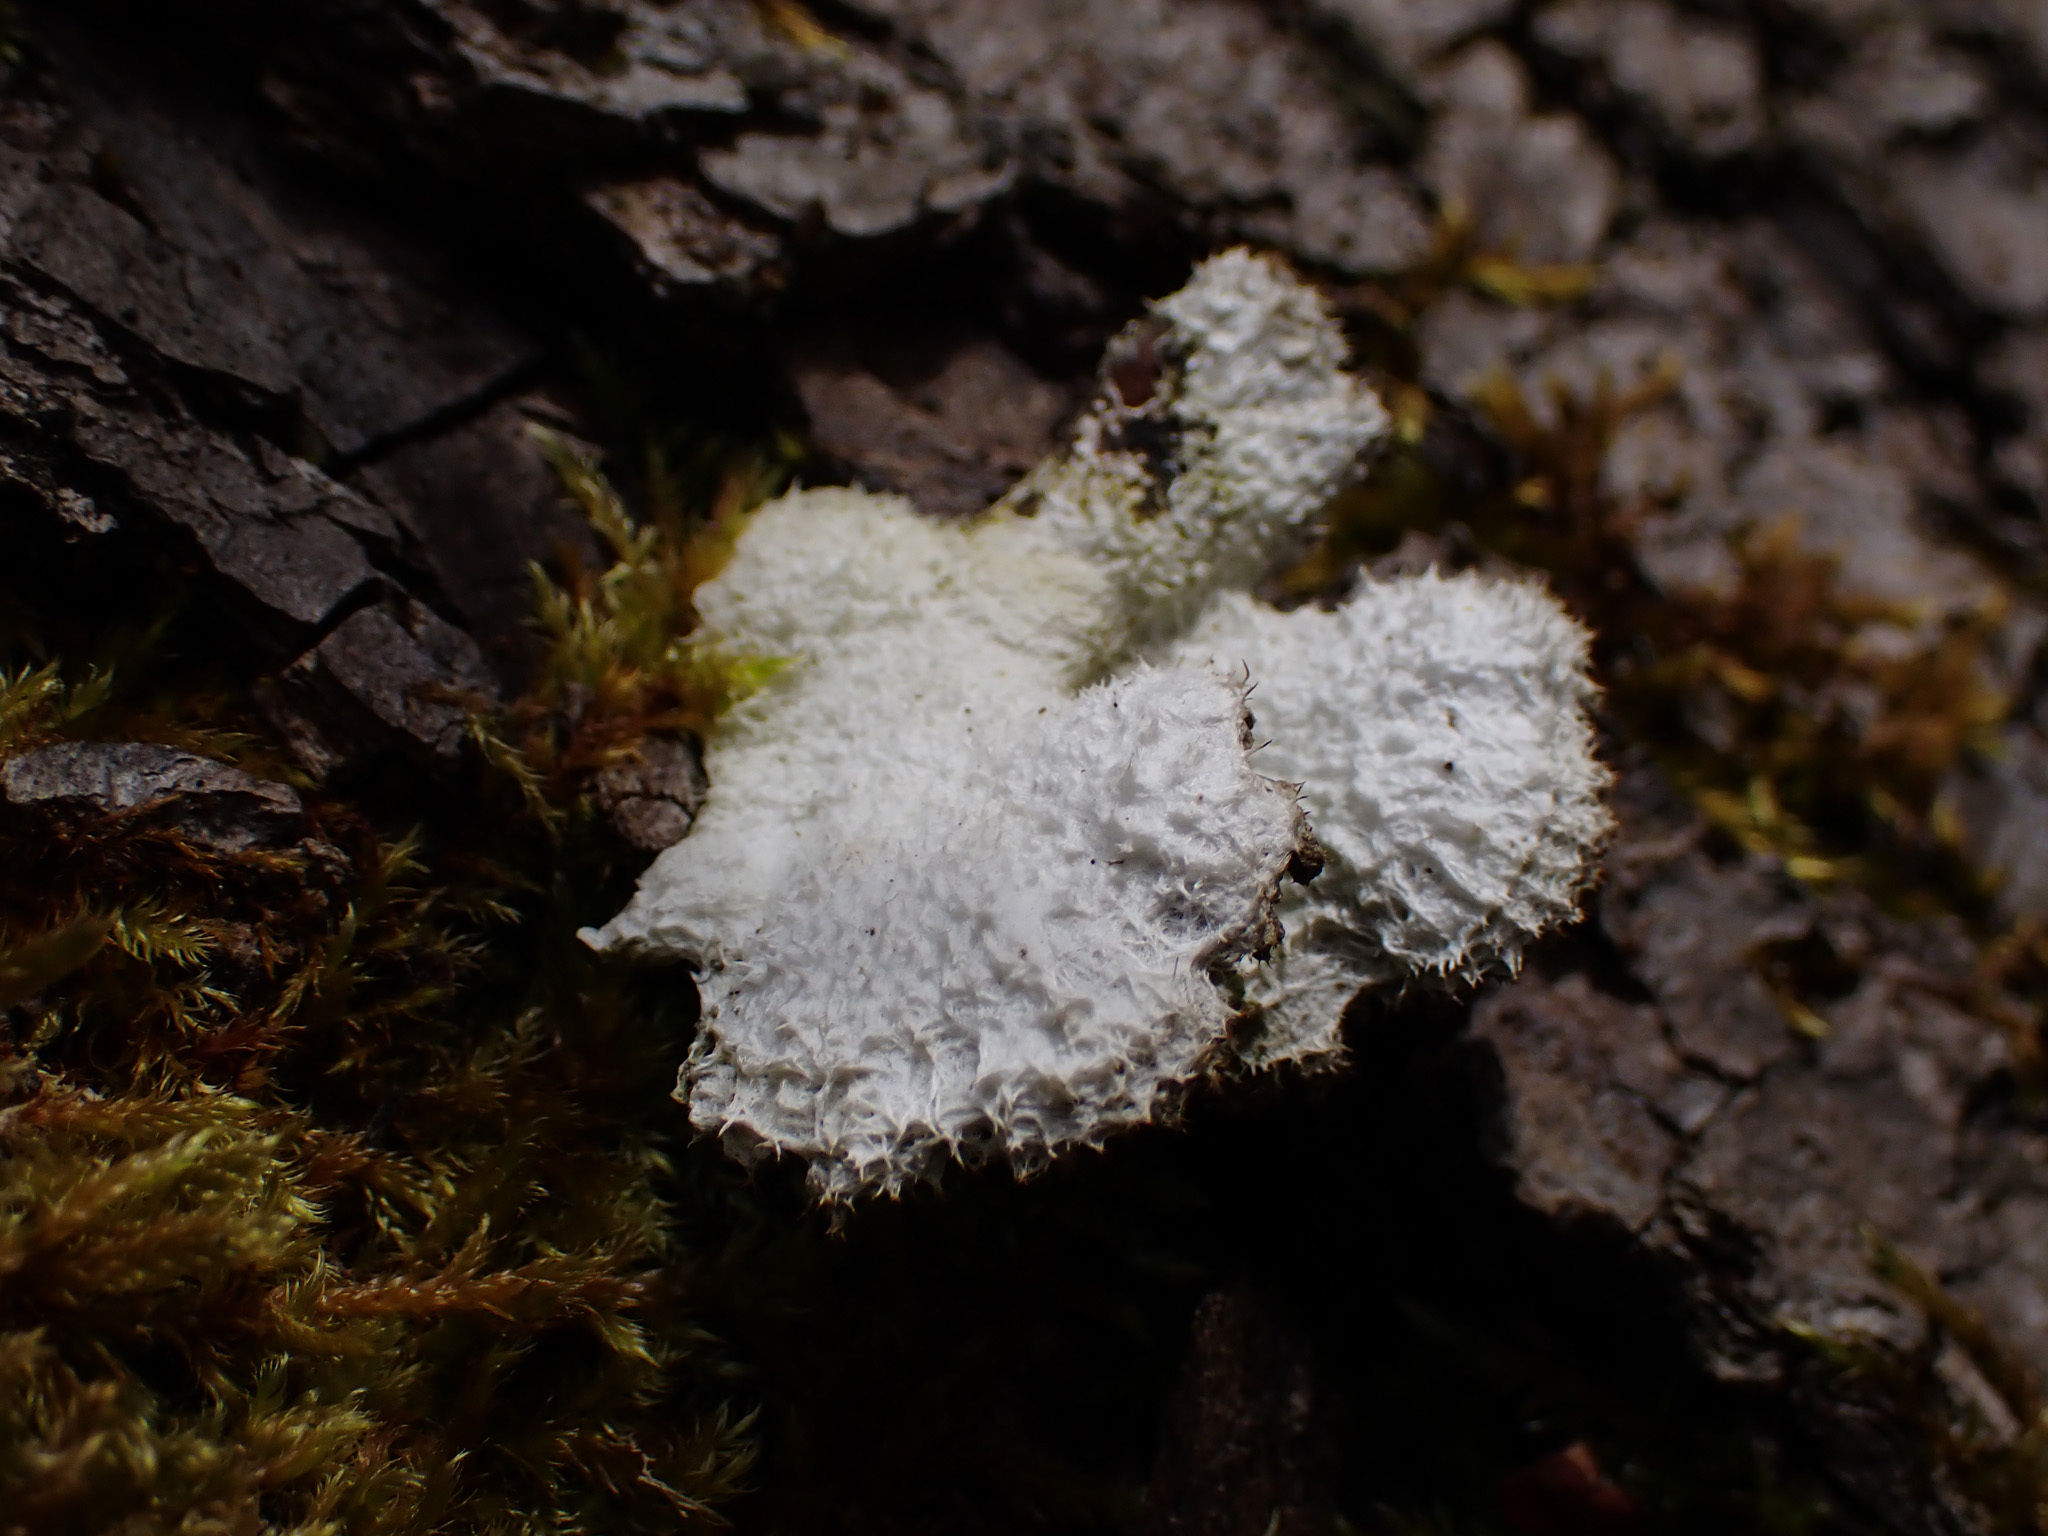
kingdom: Fungi
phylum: Basidiomycota
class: Agaricomycetes
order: Agaricales
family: Schizophyllaceae
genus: Schizophyllum
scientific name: Schizophyllum commune
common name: Common porecrust
